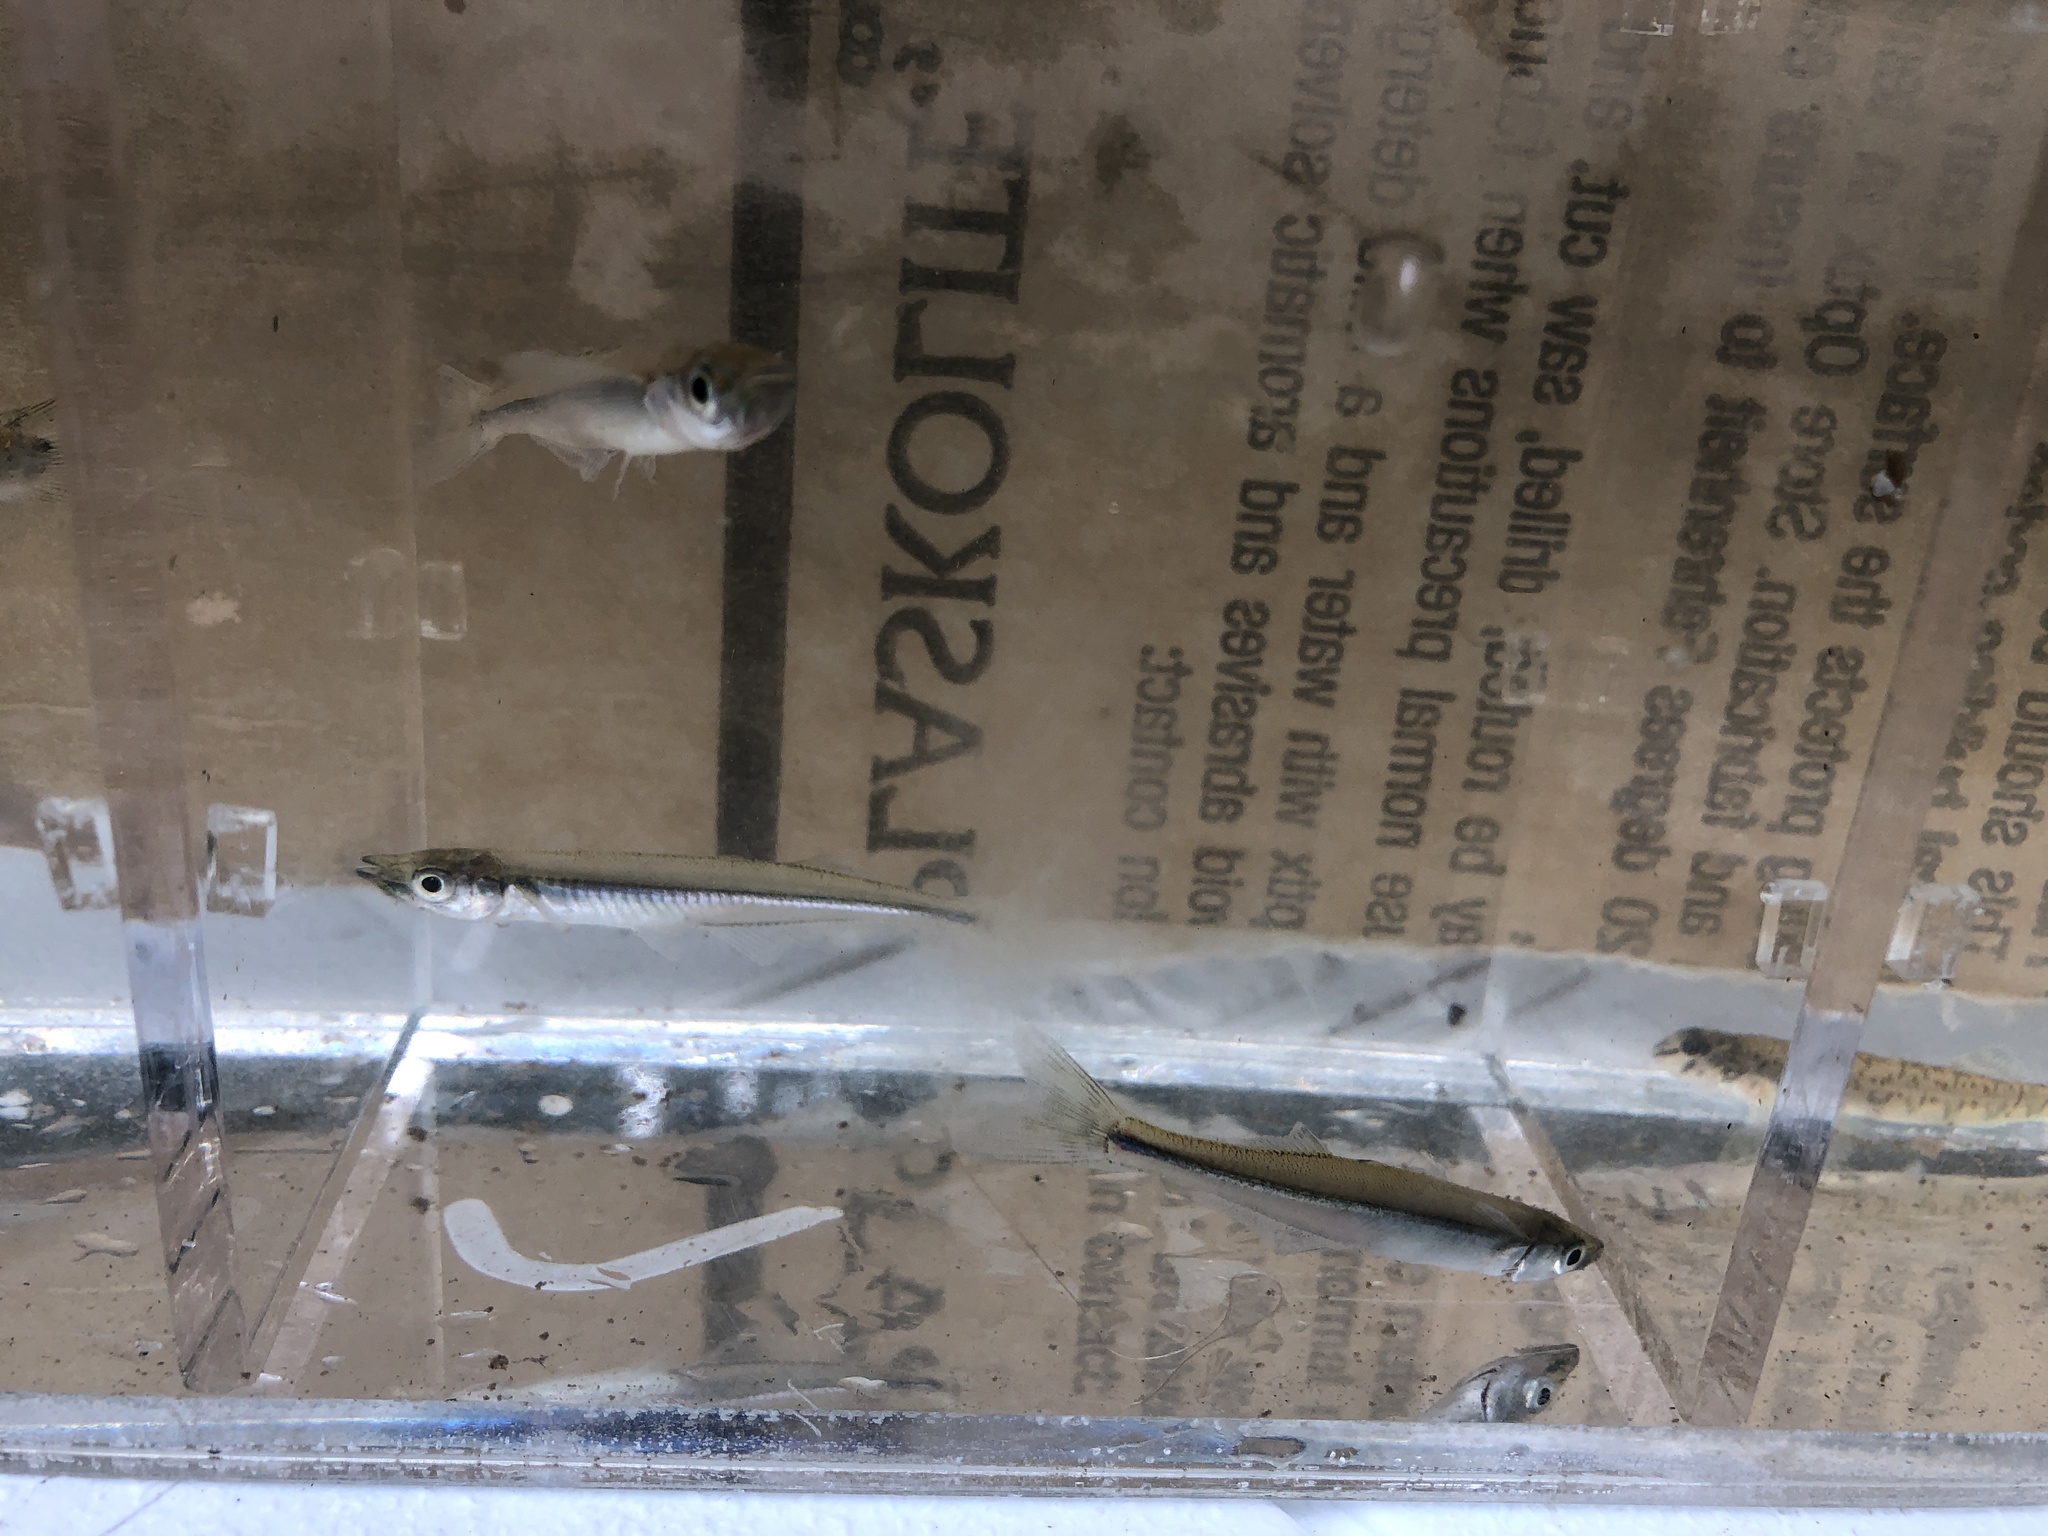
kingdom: Animalia
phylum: Chordata
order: Atheriniformes
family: Atherinopsidae
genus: Labidesthes
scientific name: Labidesthes sicculus
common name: Brook silverside
